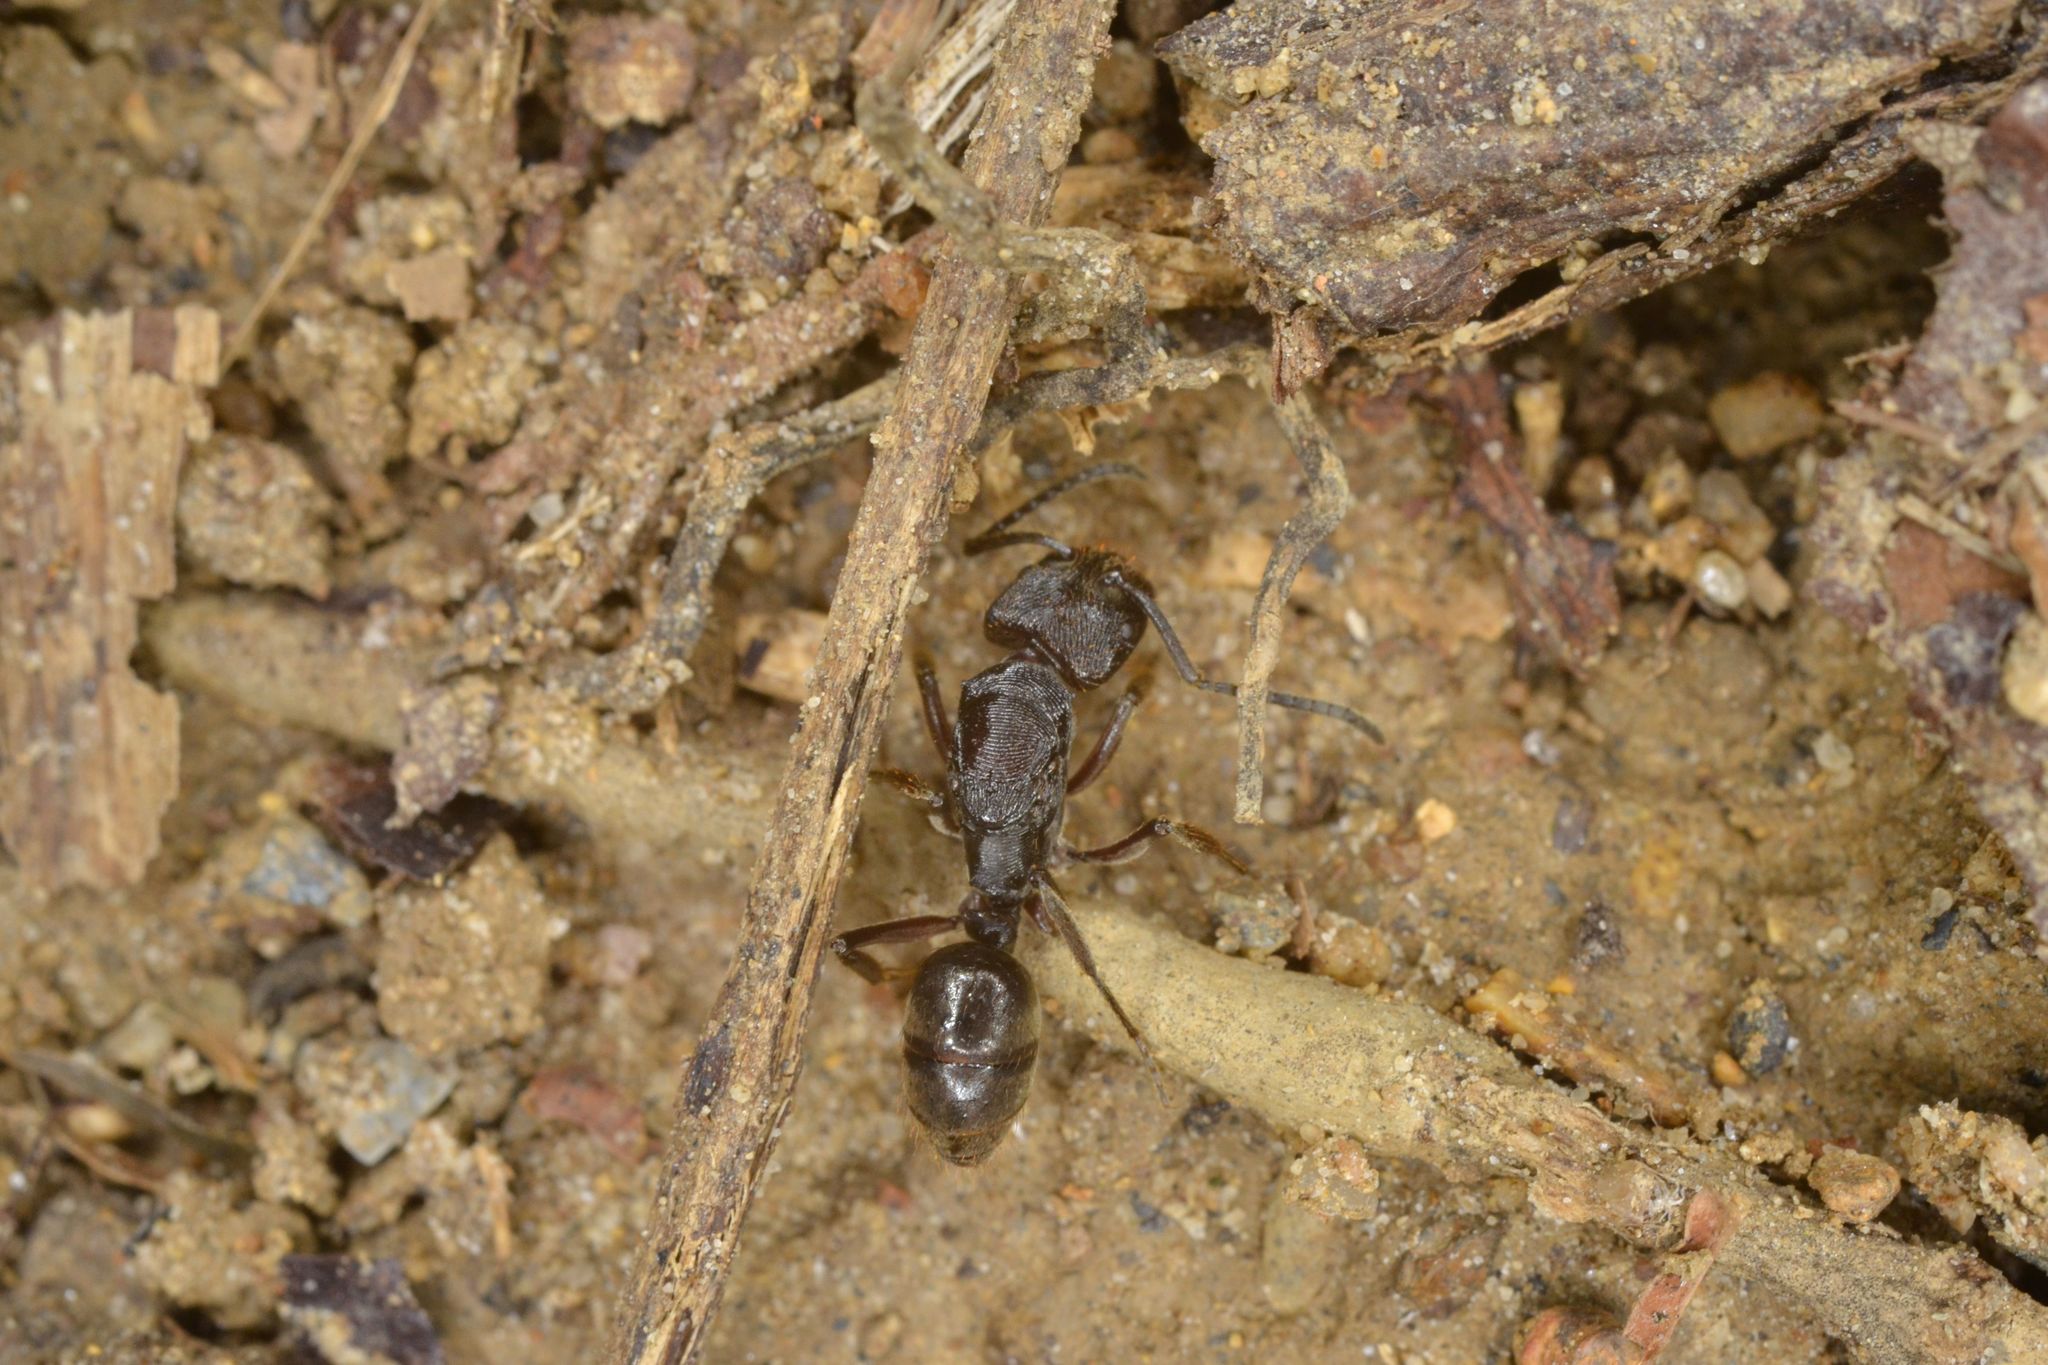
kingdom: Animalia
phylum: Arthropoda
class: Insecta
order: Hymenoptera
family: Formicidae
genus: Odontoponera
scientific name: Odontoponera transversa
